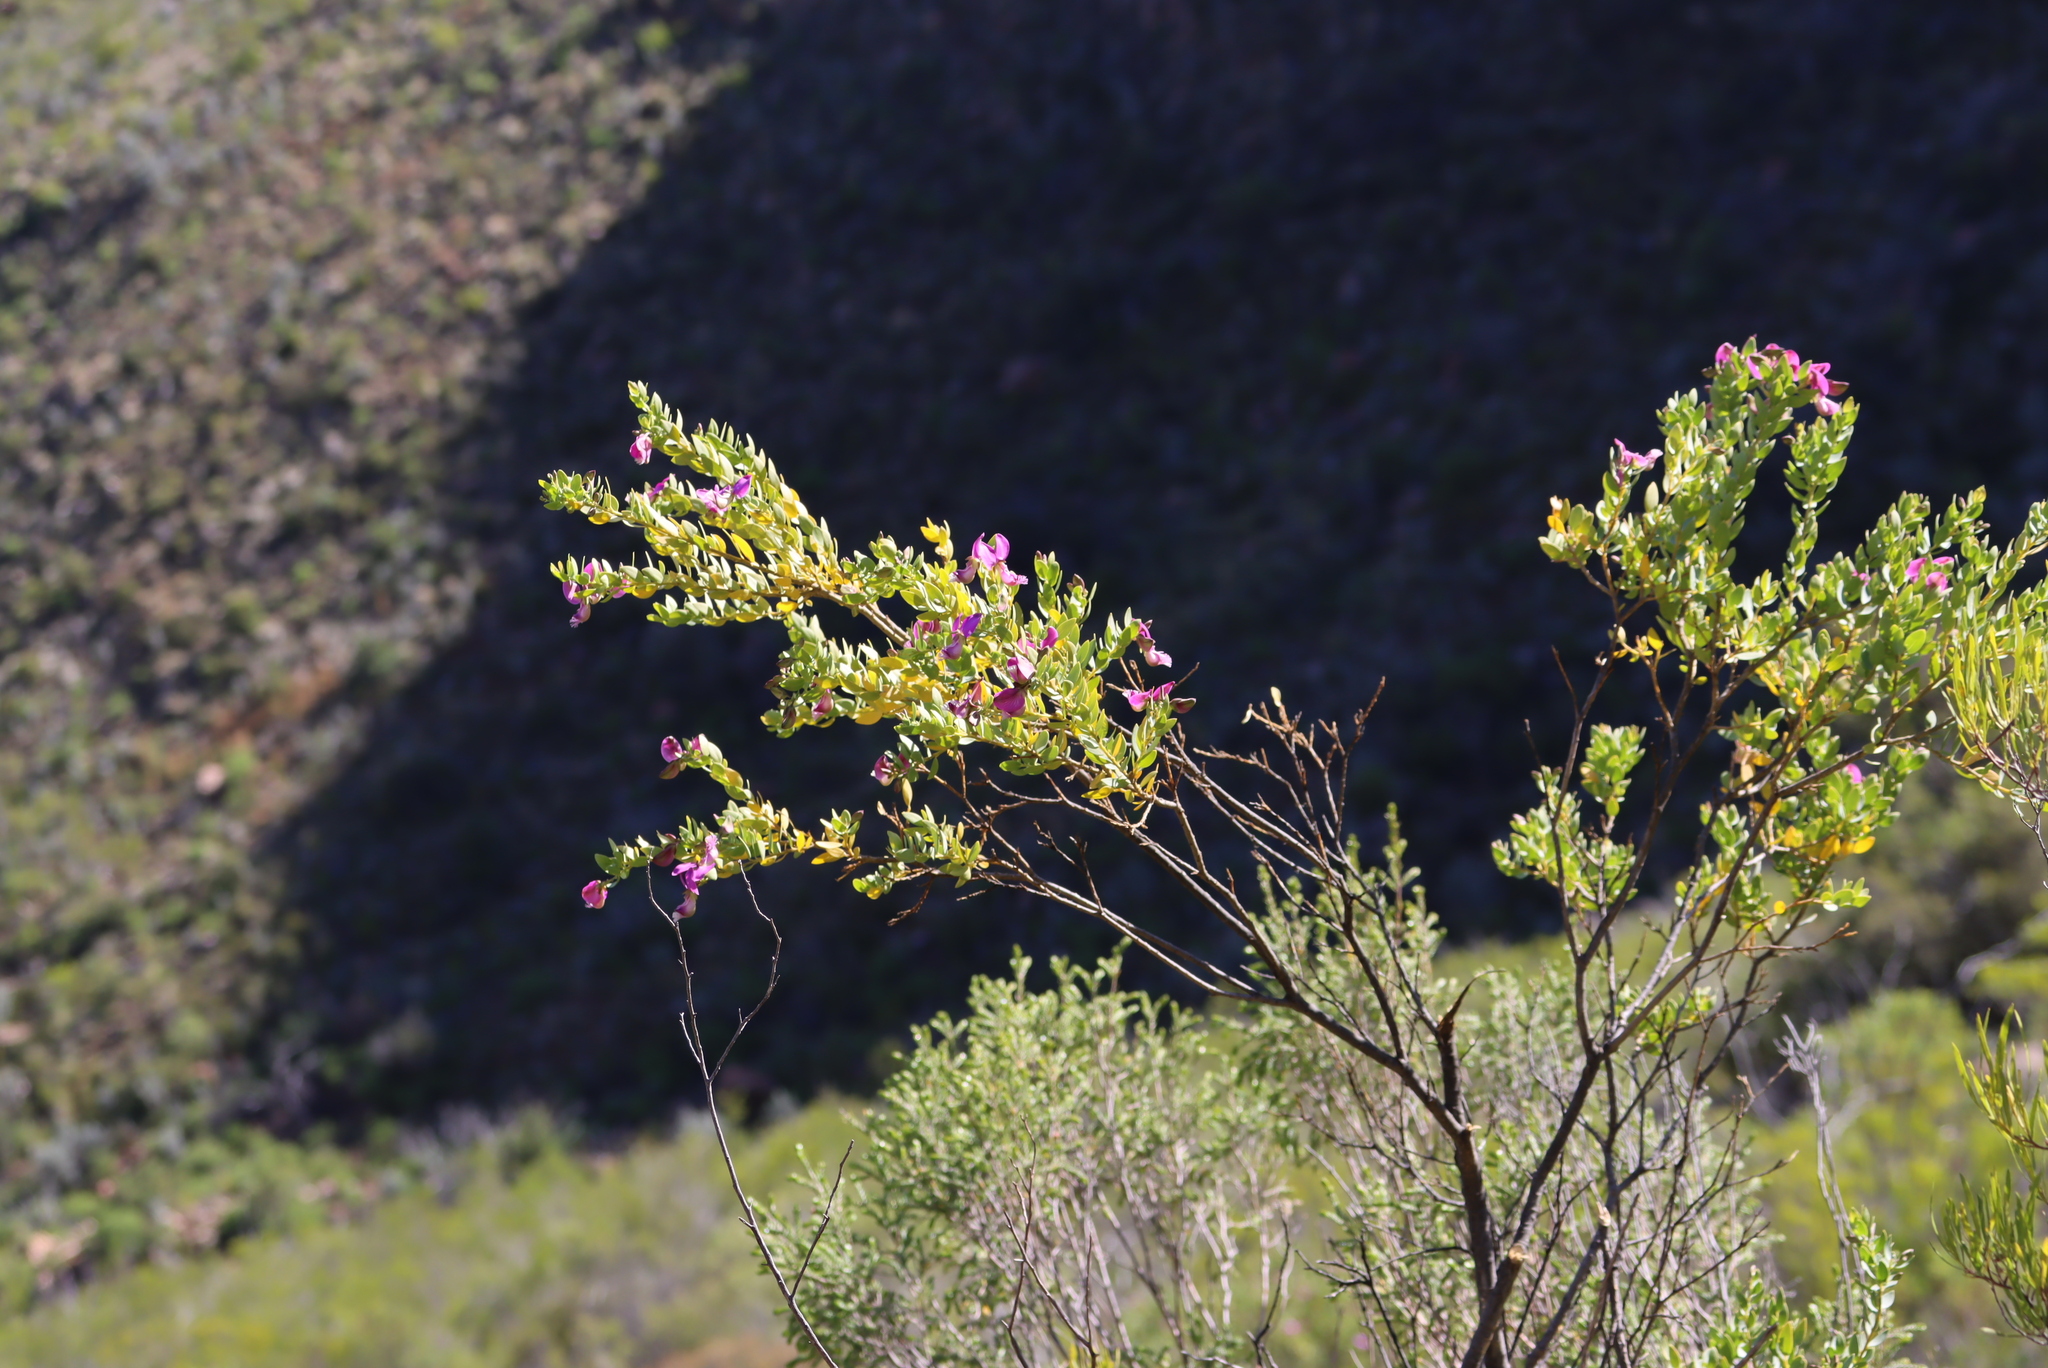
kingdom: Plantae
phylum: Tracheophyta
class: Magnoliopsida
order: Fabales
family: Polygalaceae
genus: Polygala
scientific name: Polygala myrtifolia
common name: Myrtle-leaf milkwort
